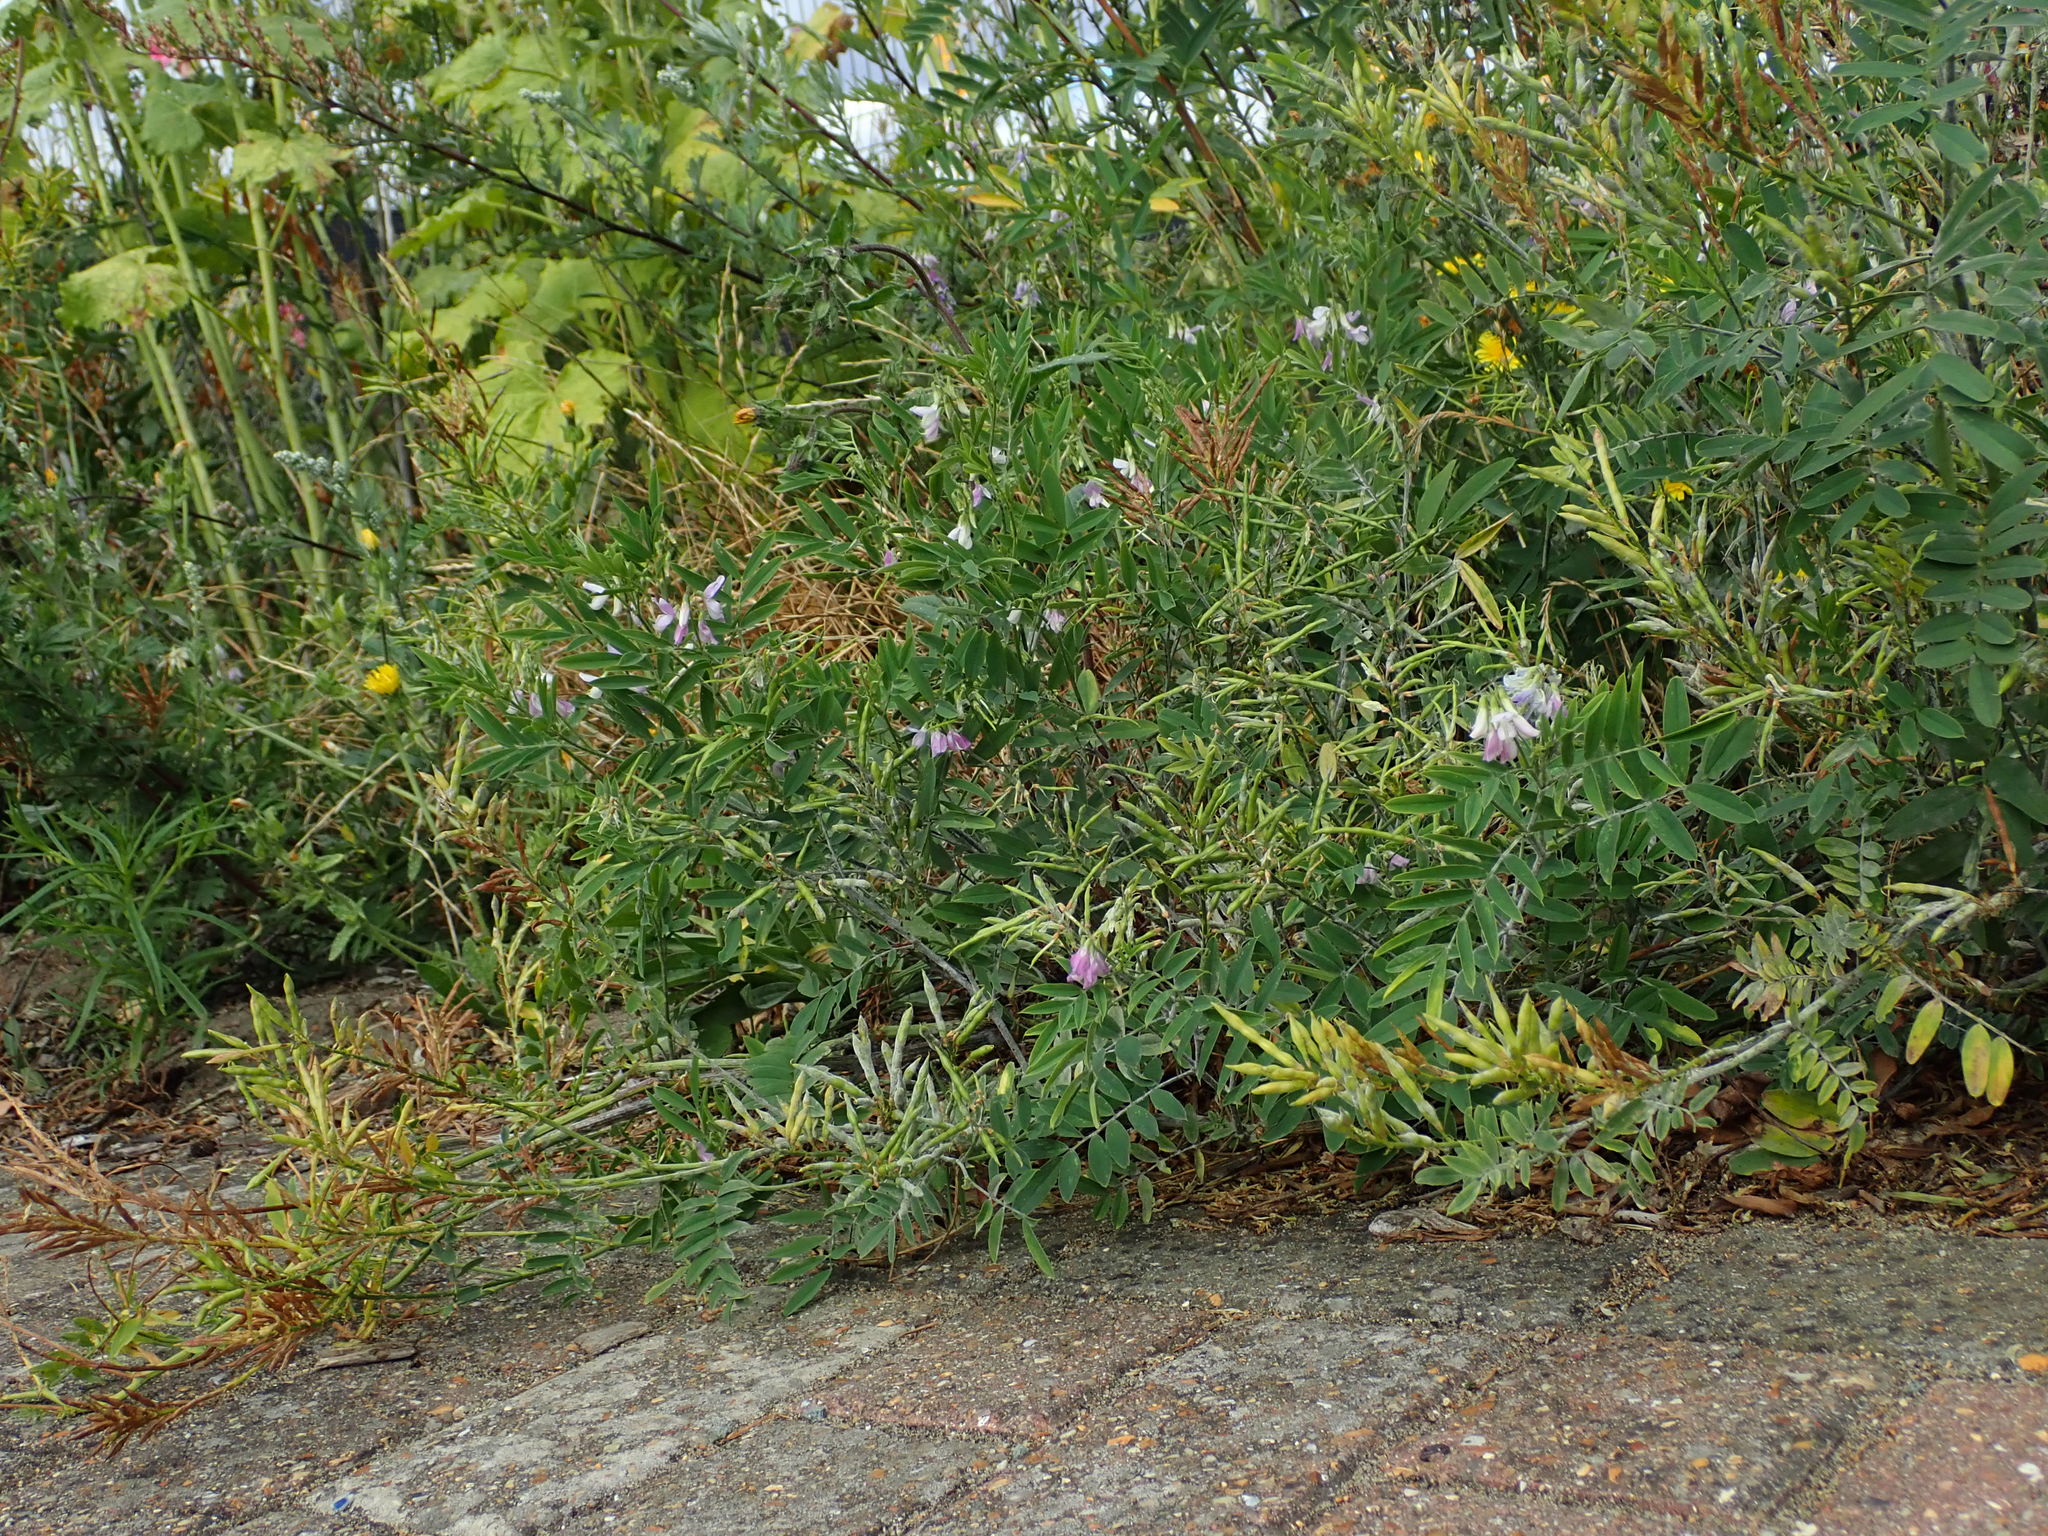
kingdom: Plantae
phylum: Tracheophyta
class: Magnoliopsida
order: Fabales
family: Fabaceae
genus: Galega
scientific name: Galega officinalis
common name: Goat's-rue
